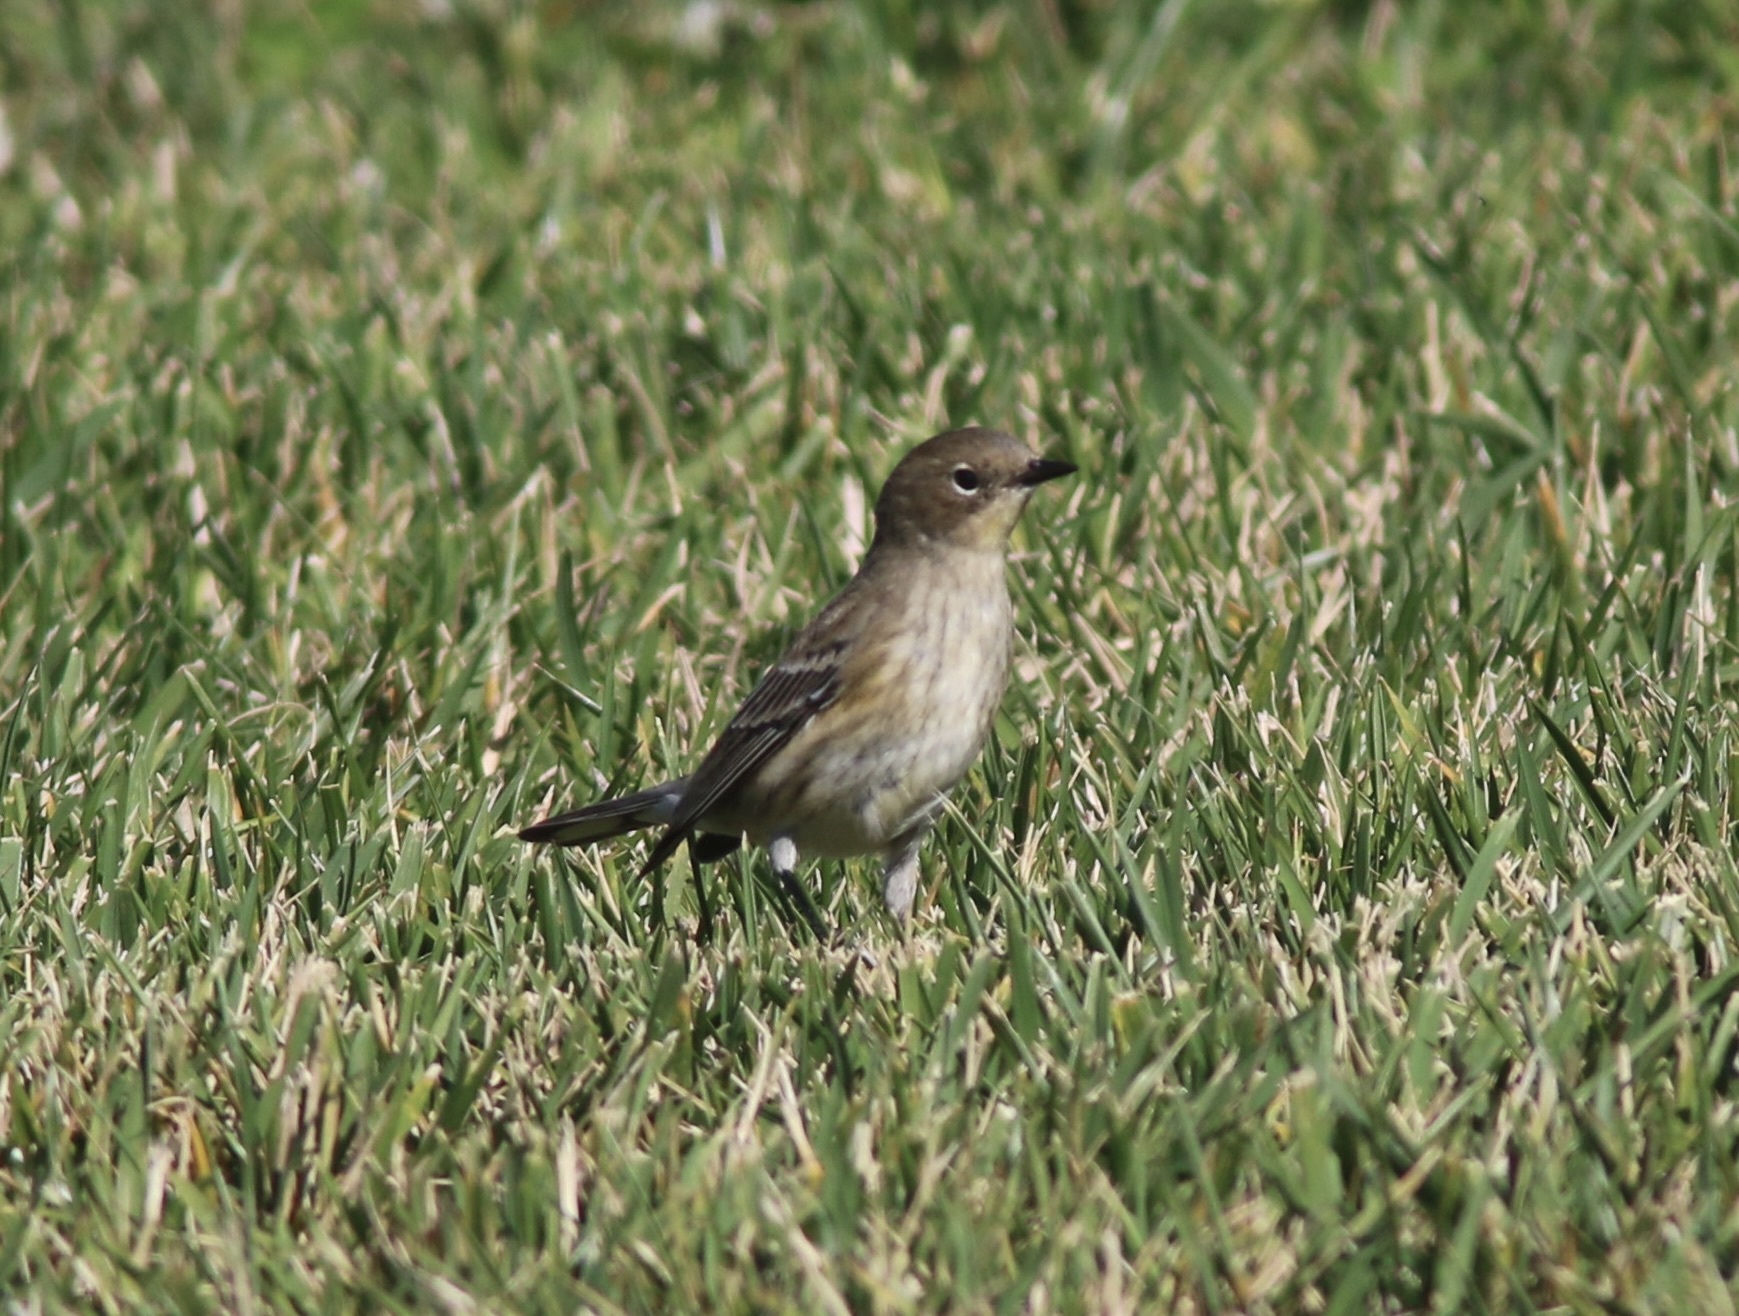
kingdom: Animalia
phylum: Chordata
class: Aves
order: Passeriformes
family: Parulidae
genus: Setophaga
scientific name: Setophaga coronata
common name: Myrtle warbler
